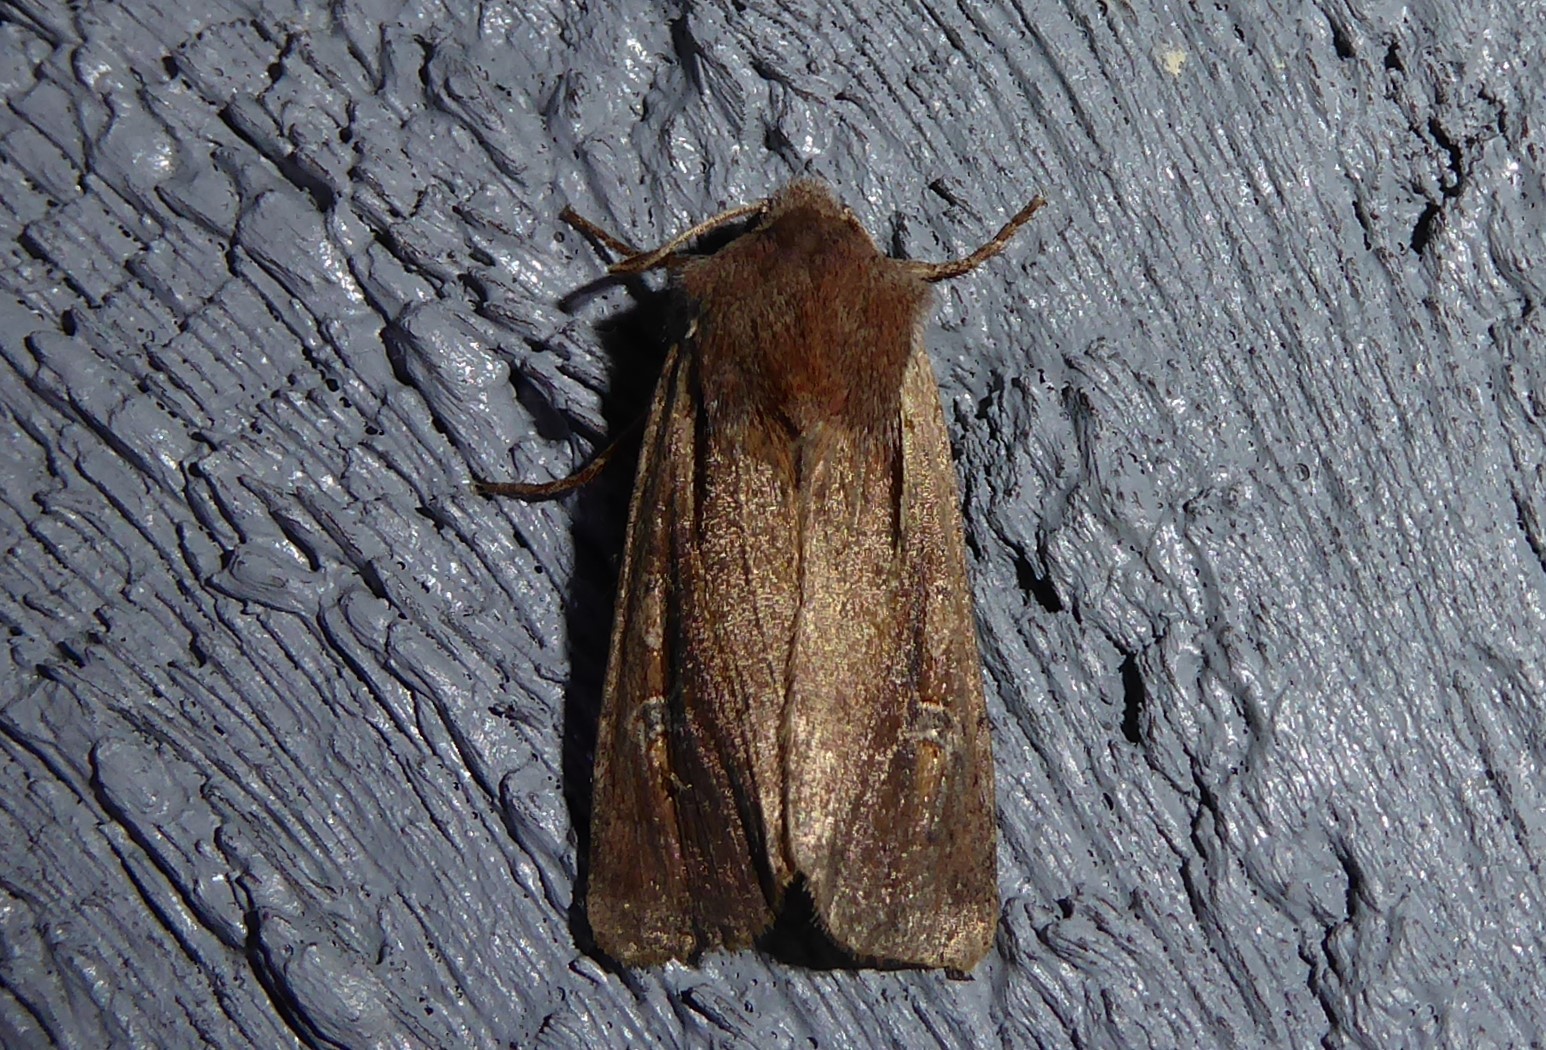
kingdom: Animalia
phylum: Arthropoda
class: Insecta
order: Lepidoptera
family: Noctuidae
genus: Ichneutica
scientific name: Ichneutica atristriga
